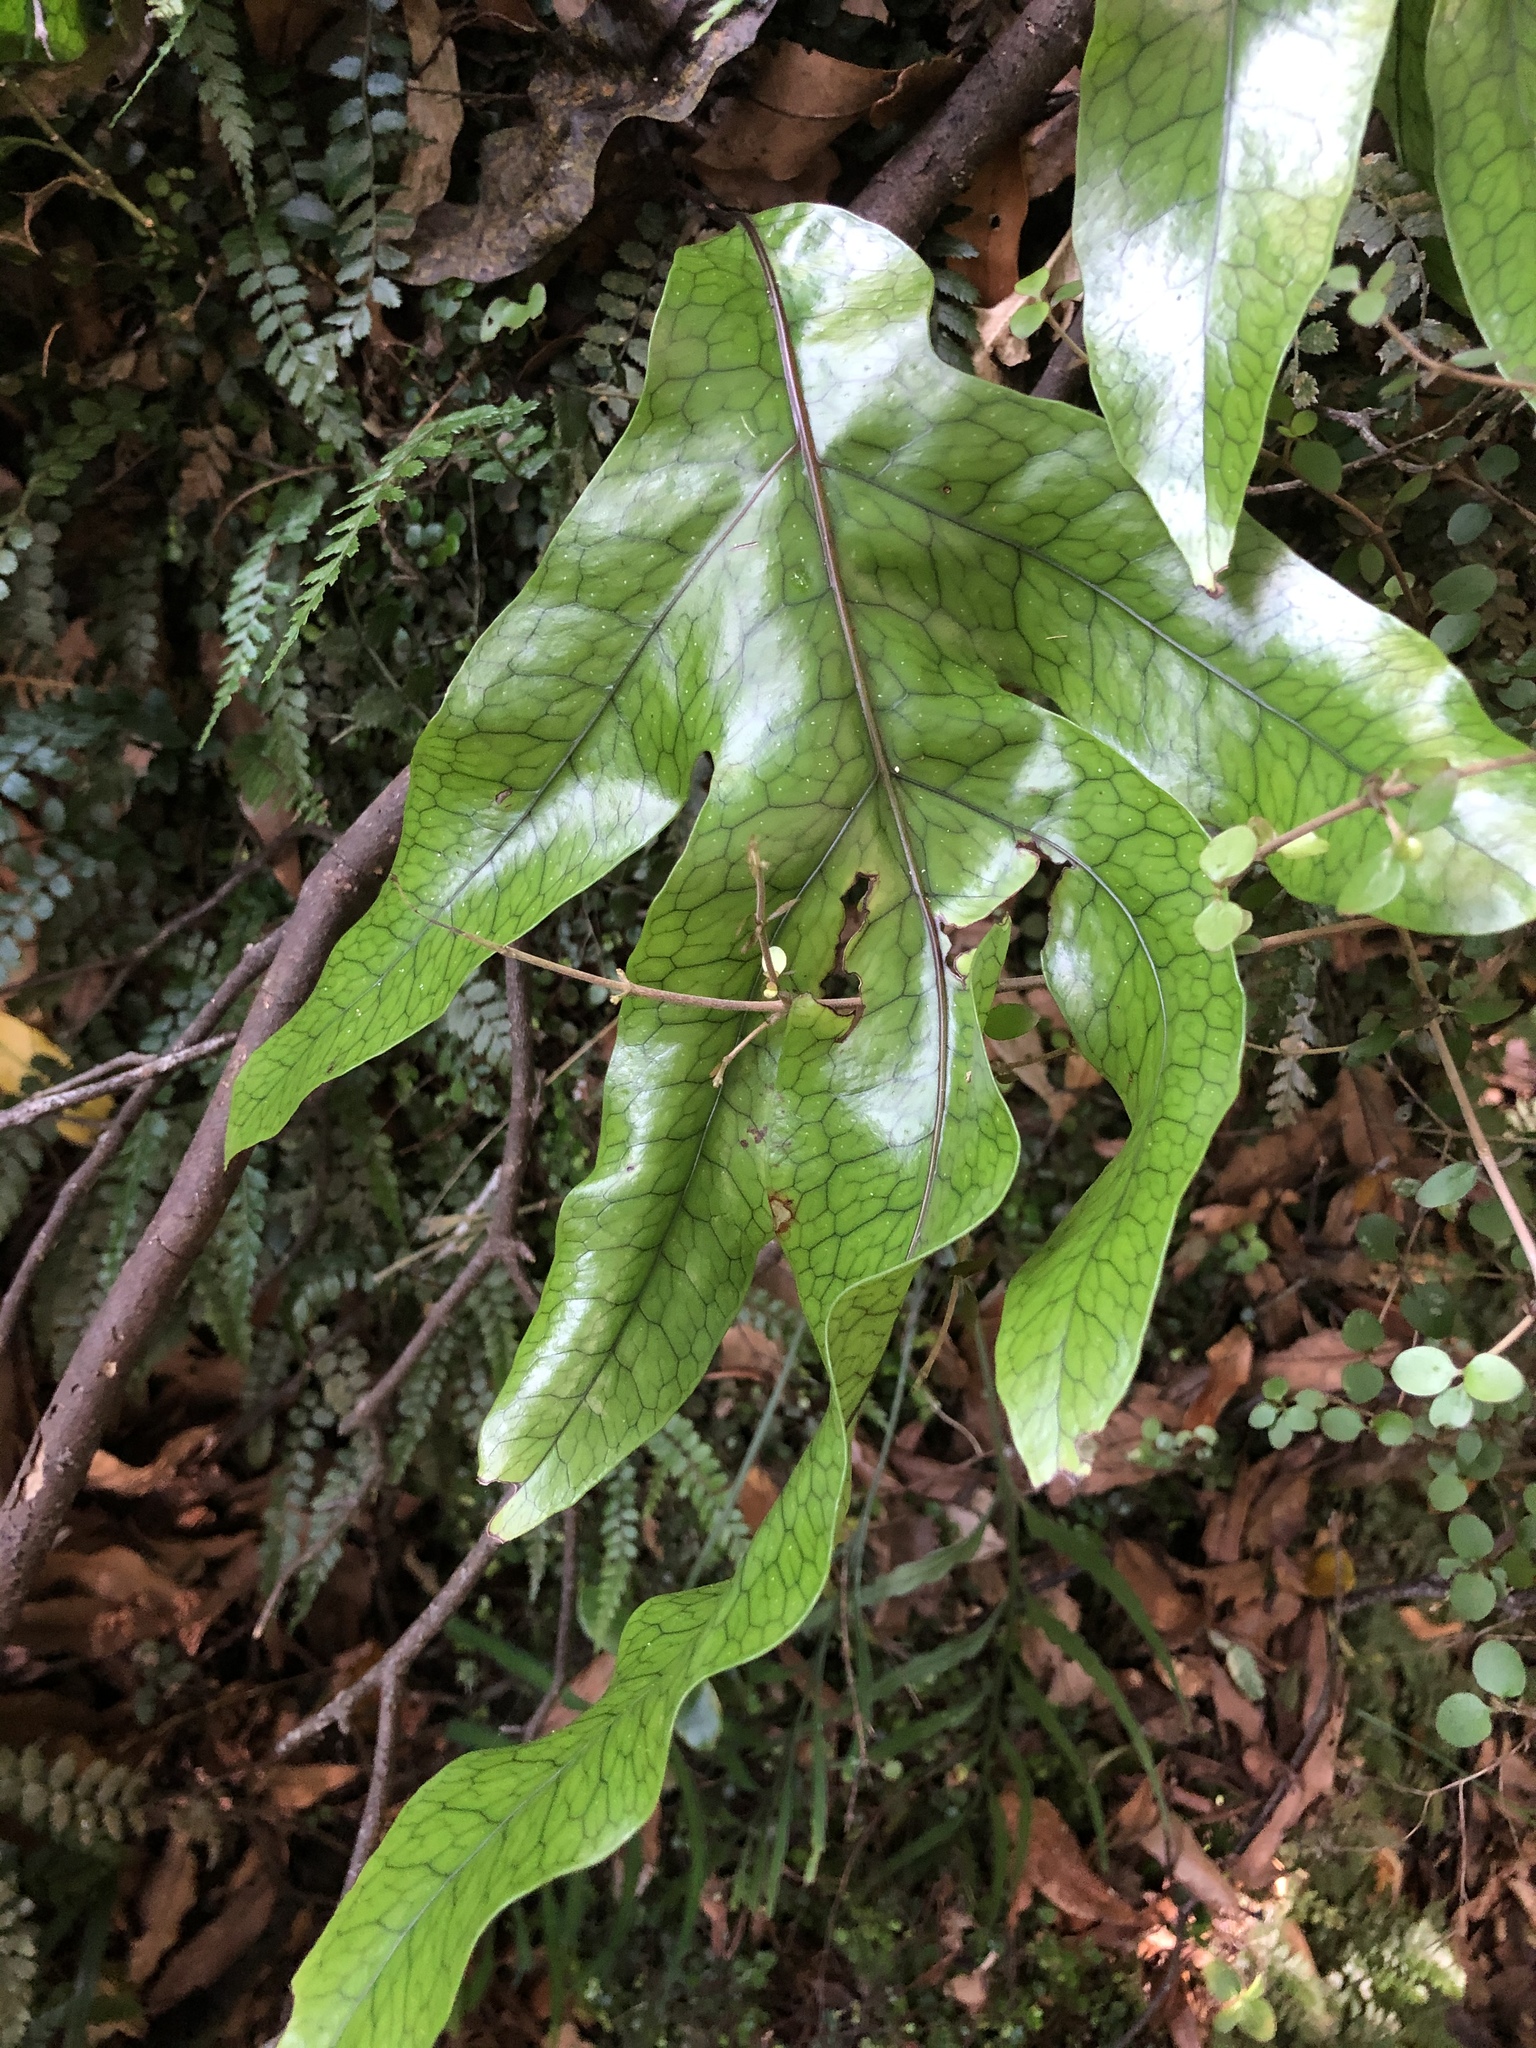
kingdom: Plantae
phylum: Tracheophyta
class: Polypodiopsida
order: Polypodiales
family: Polypodiaceae
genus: Lecanopteris
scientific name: Lecanopteris pustulata
